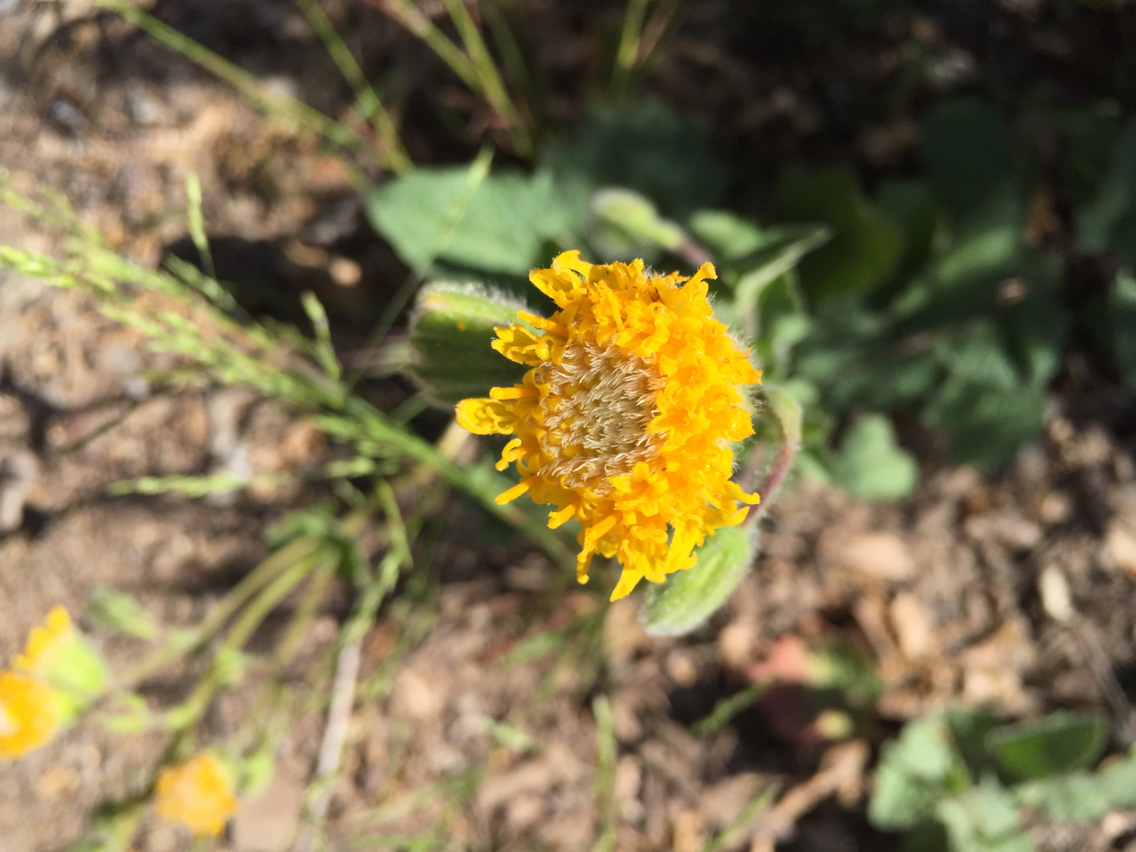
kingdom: Plantae
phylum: Tracheophyta
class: Magnoliopsida
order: Asterales
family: Asteraceae
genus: Arnica
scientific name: Arnica discoidea
